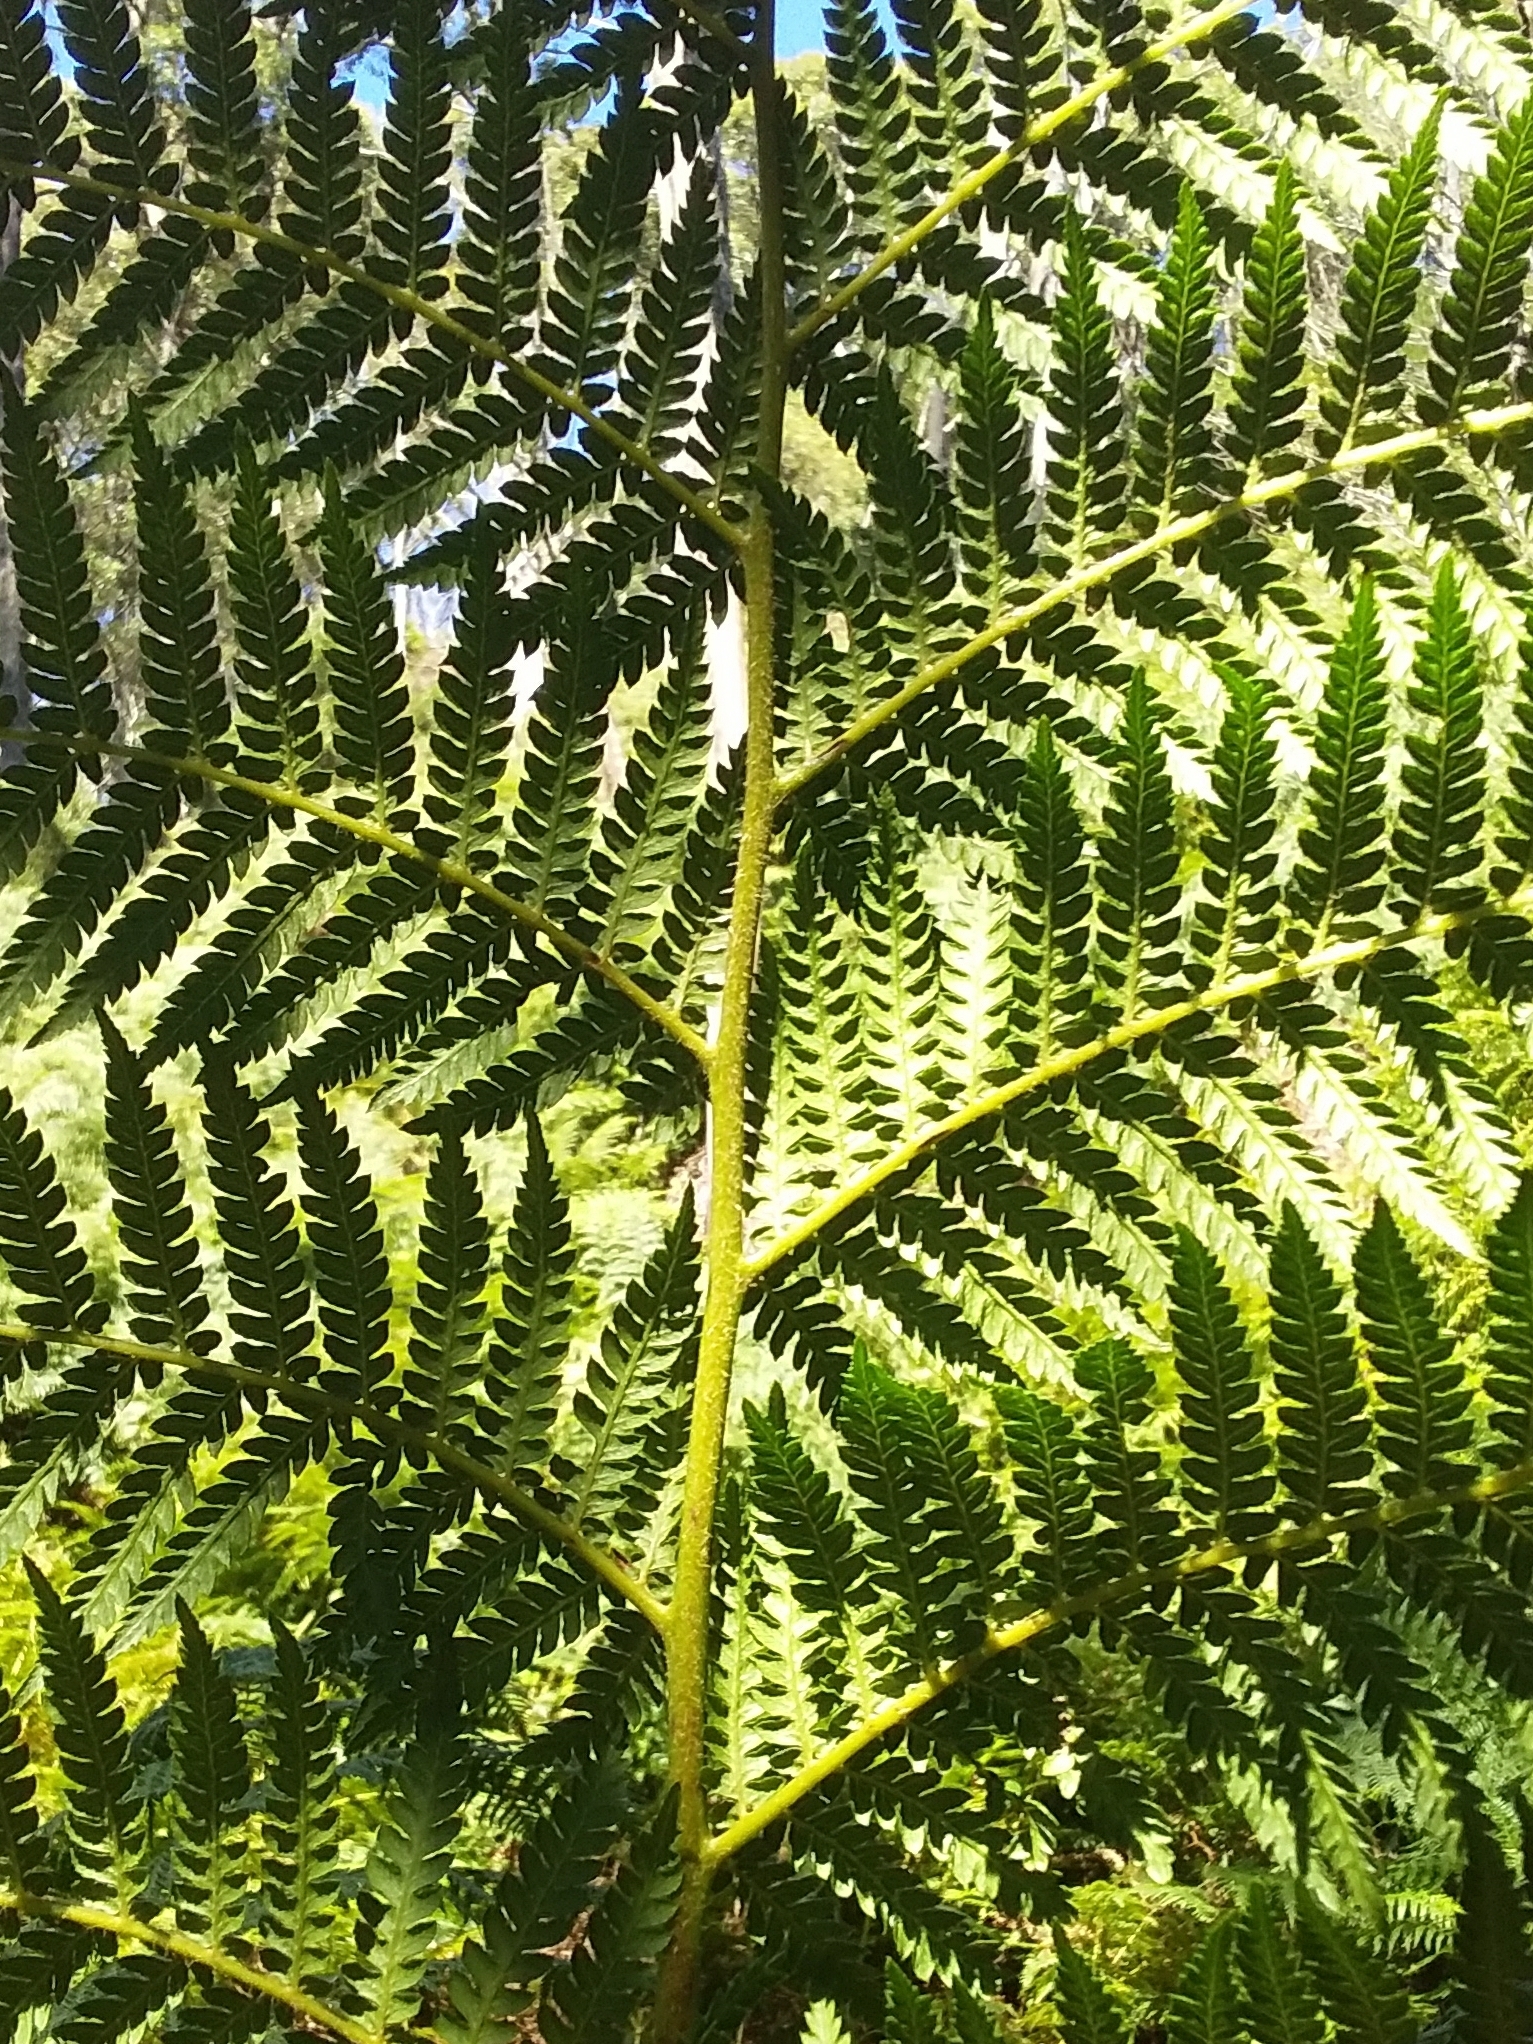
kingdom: Plantae
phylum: Tracheophyta
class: Polypodiopsida
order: Cyatheales
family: Dicksoniaceae
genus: Dicksonia
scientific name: Dicksonia antarctica
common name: Australian treefern
